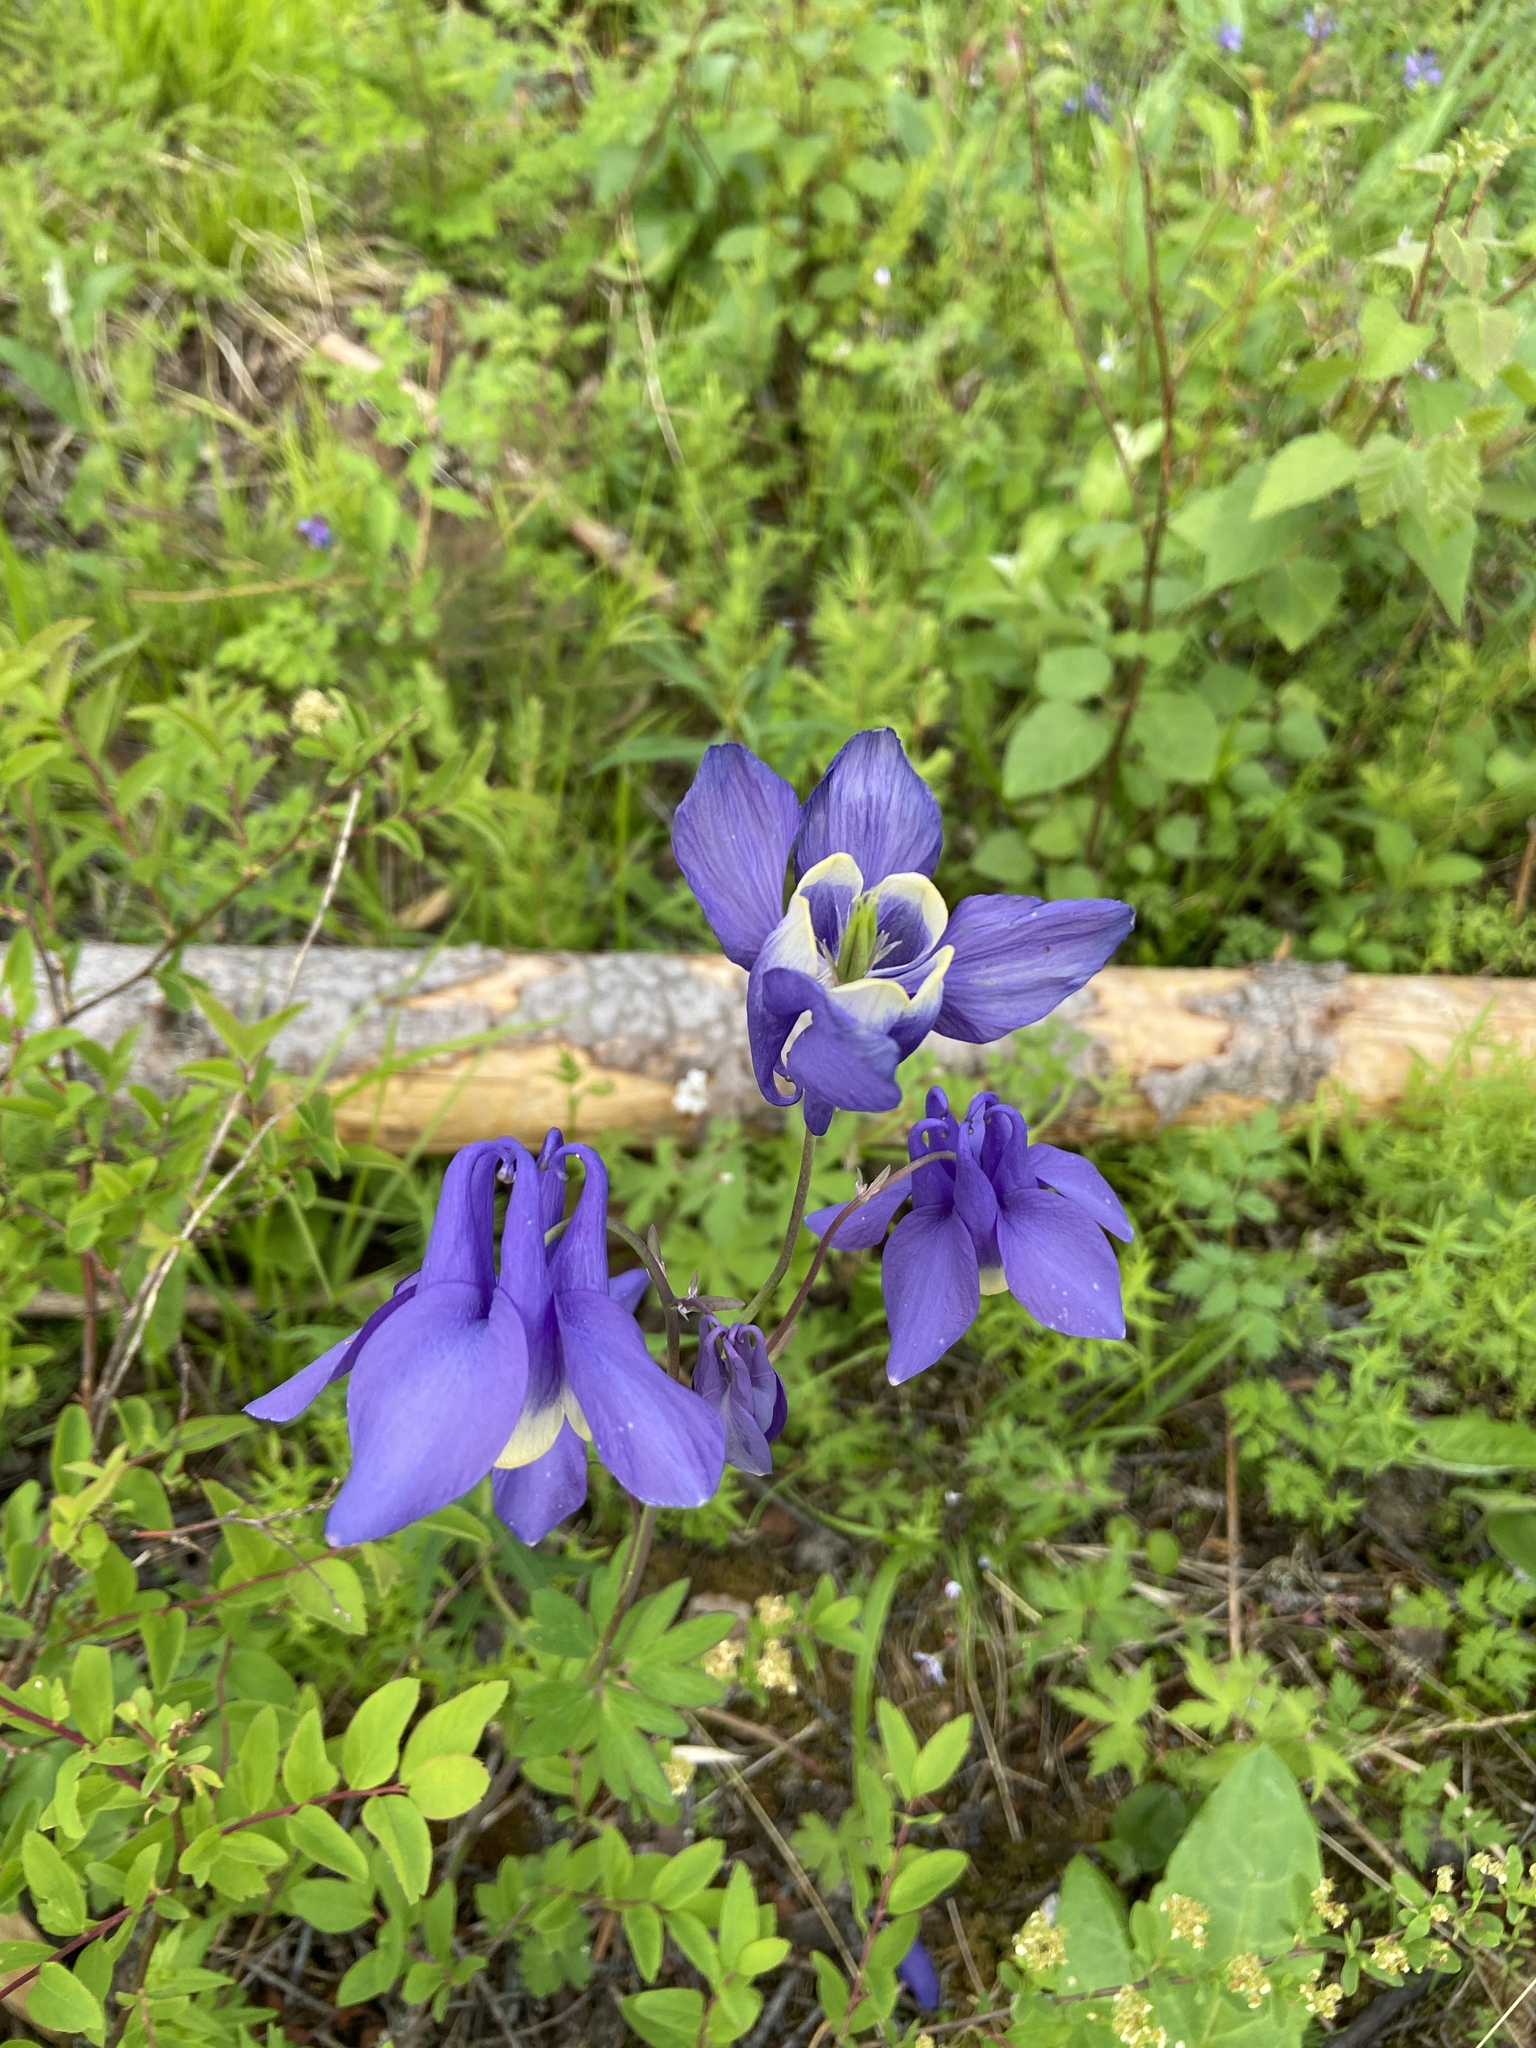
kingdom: Plantae
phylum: Tracheophyta
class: Magnoliopsida
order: Ranunculales
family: Ranunculaceae
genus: Aquilegia
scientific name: Aquilegia sibirica
